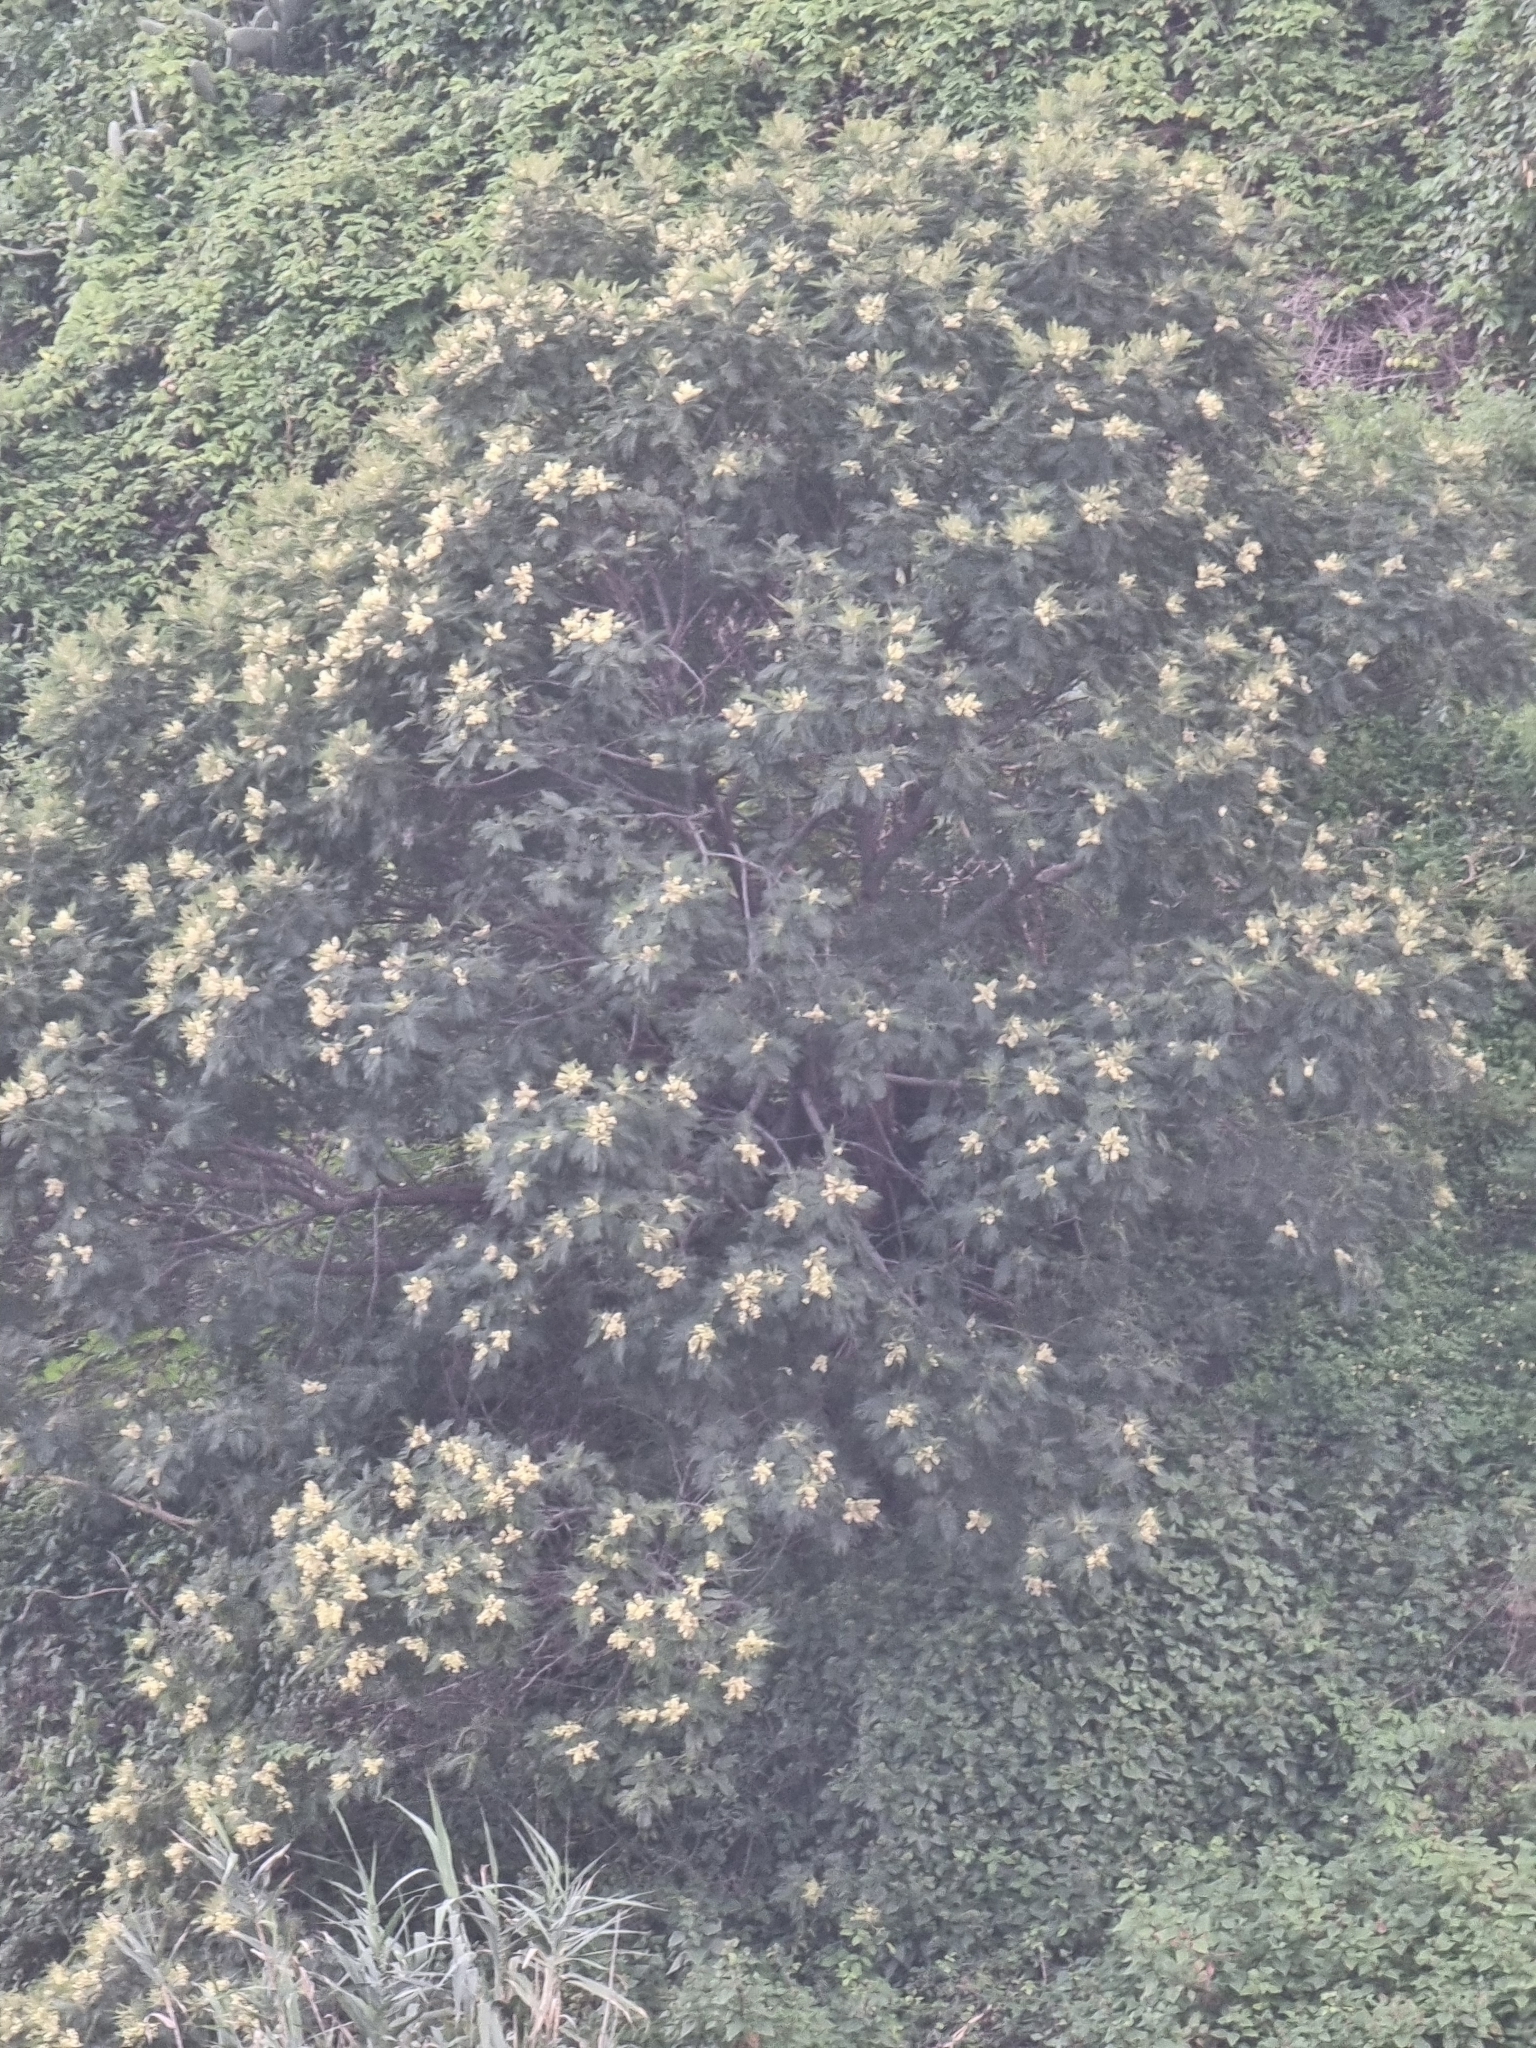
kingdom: Plantae
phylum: Tracheophyta
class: Magnoliopsida
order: Fabales
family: Fabaceae
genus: Acacia
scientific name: Acacia mearnsii
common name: Black wattle
